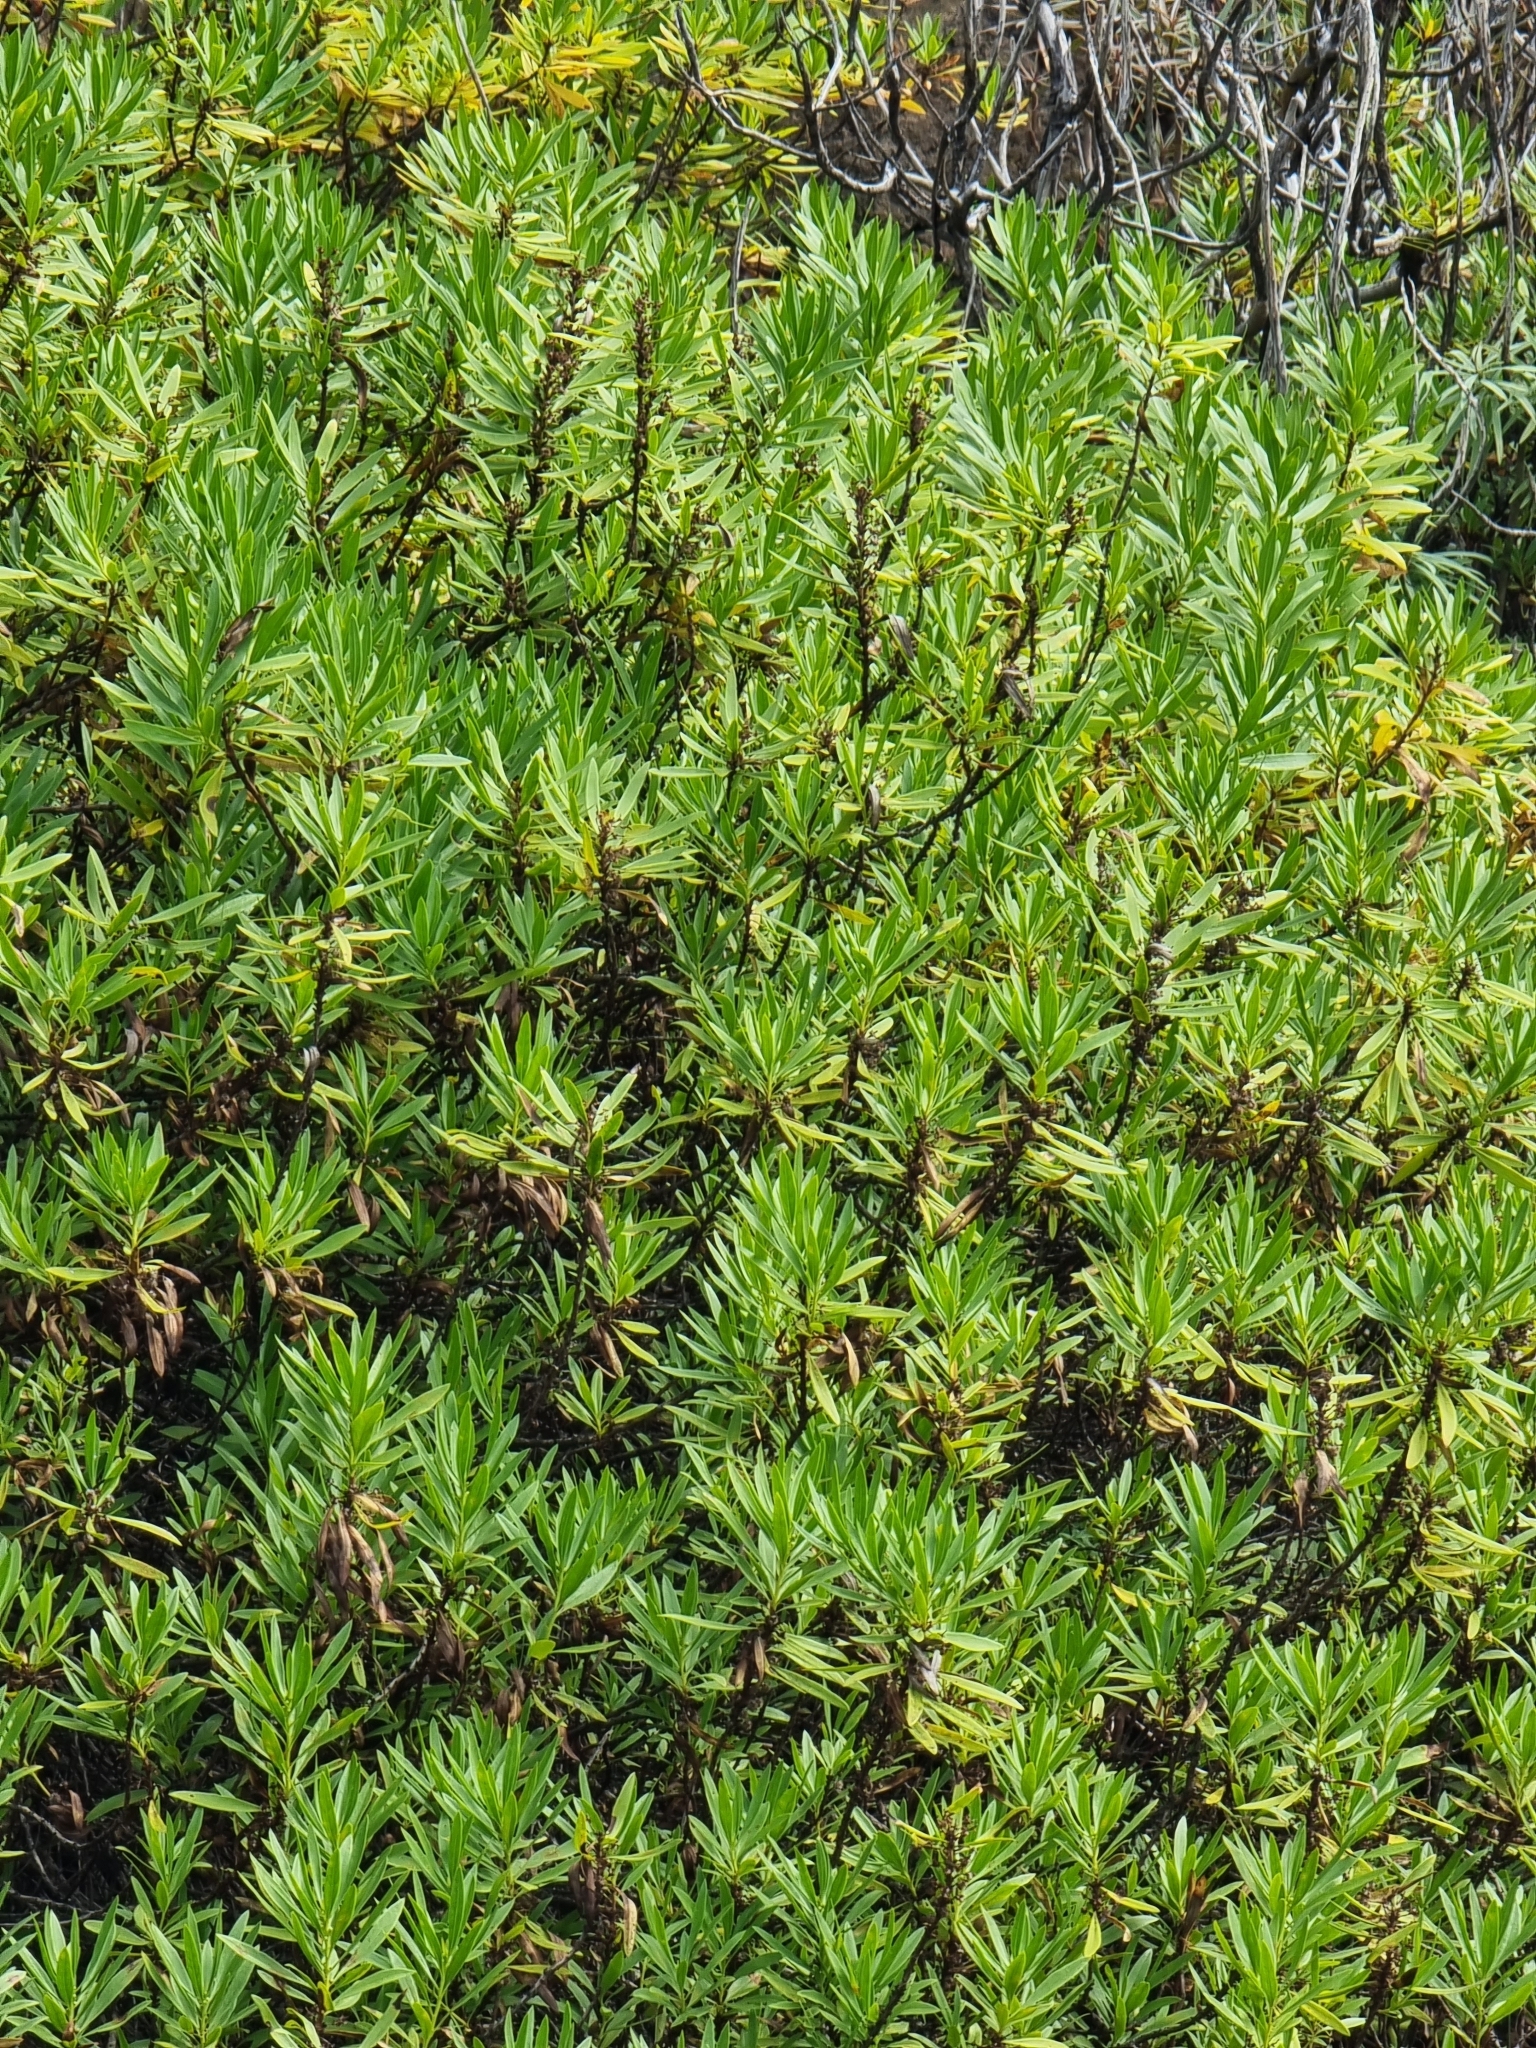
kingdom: Plantae
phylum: Tracheophyta
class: Magnoliopsida
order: Lamiales
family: Plantaginaceae
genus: Globularia
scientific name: Globularia salicina
